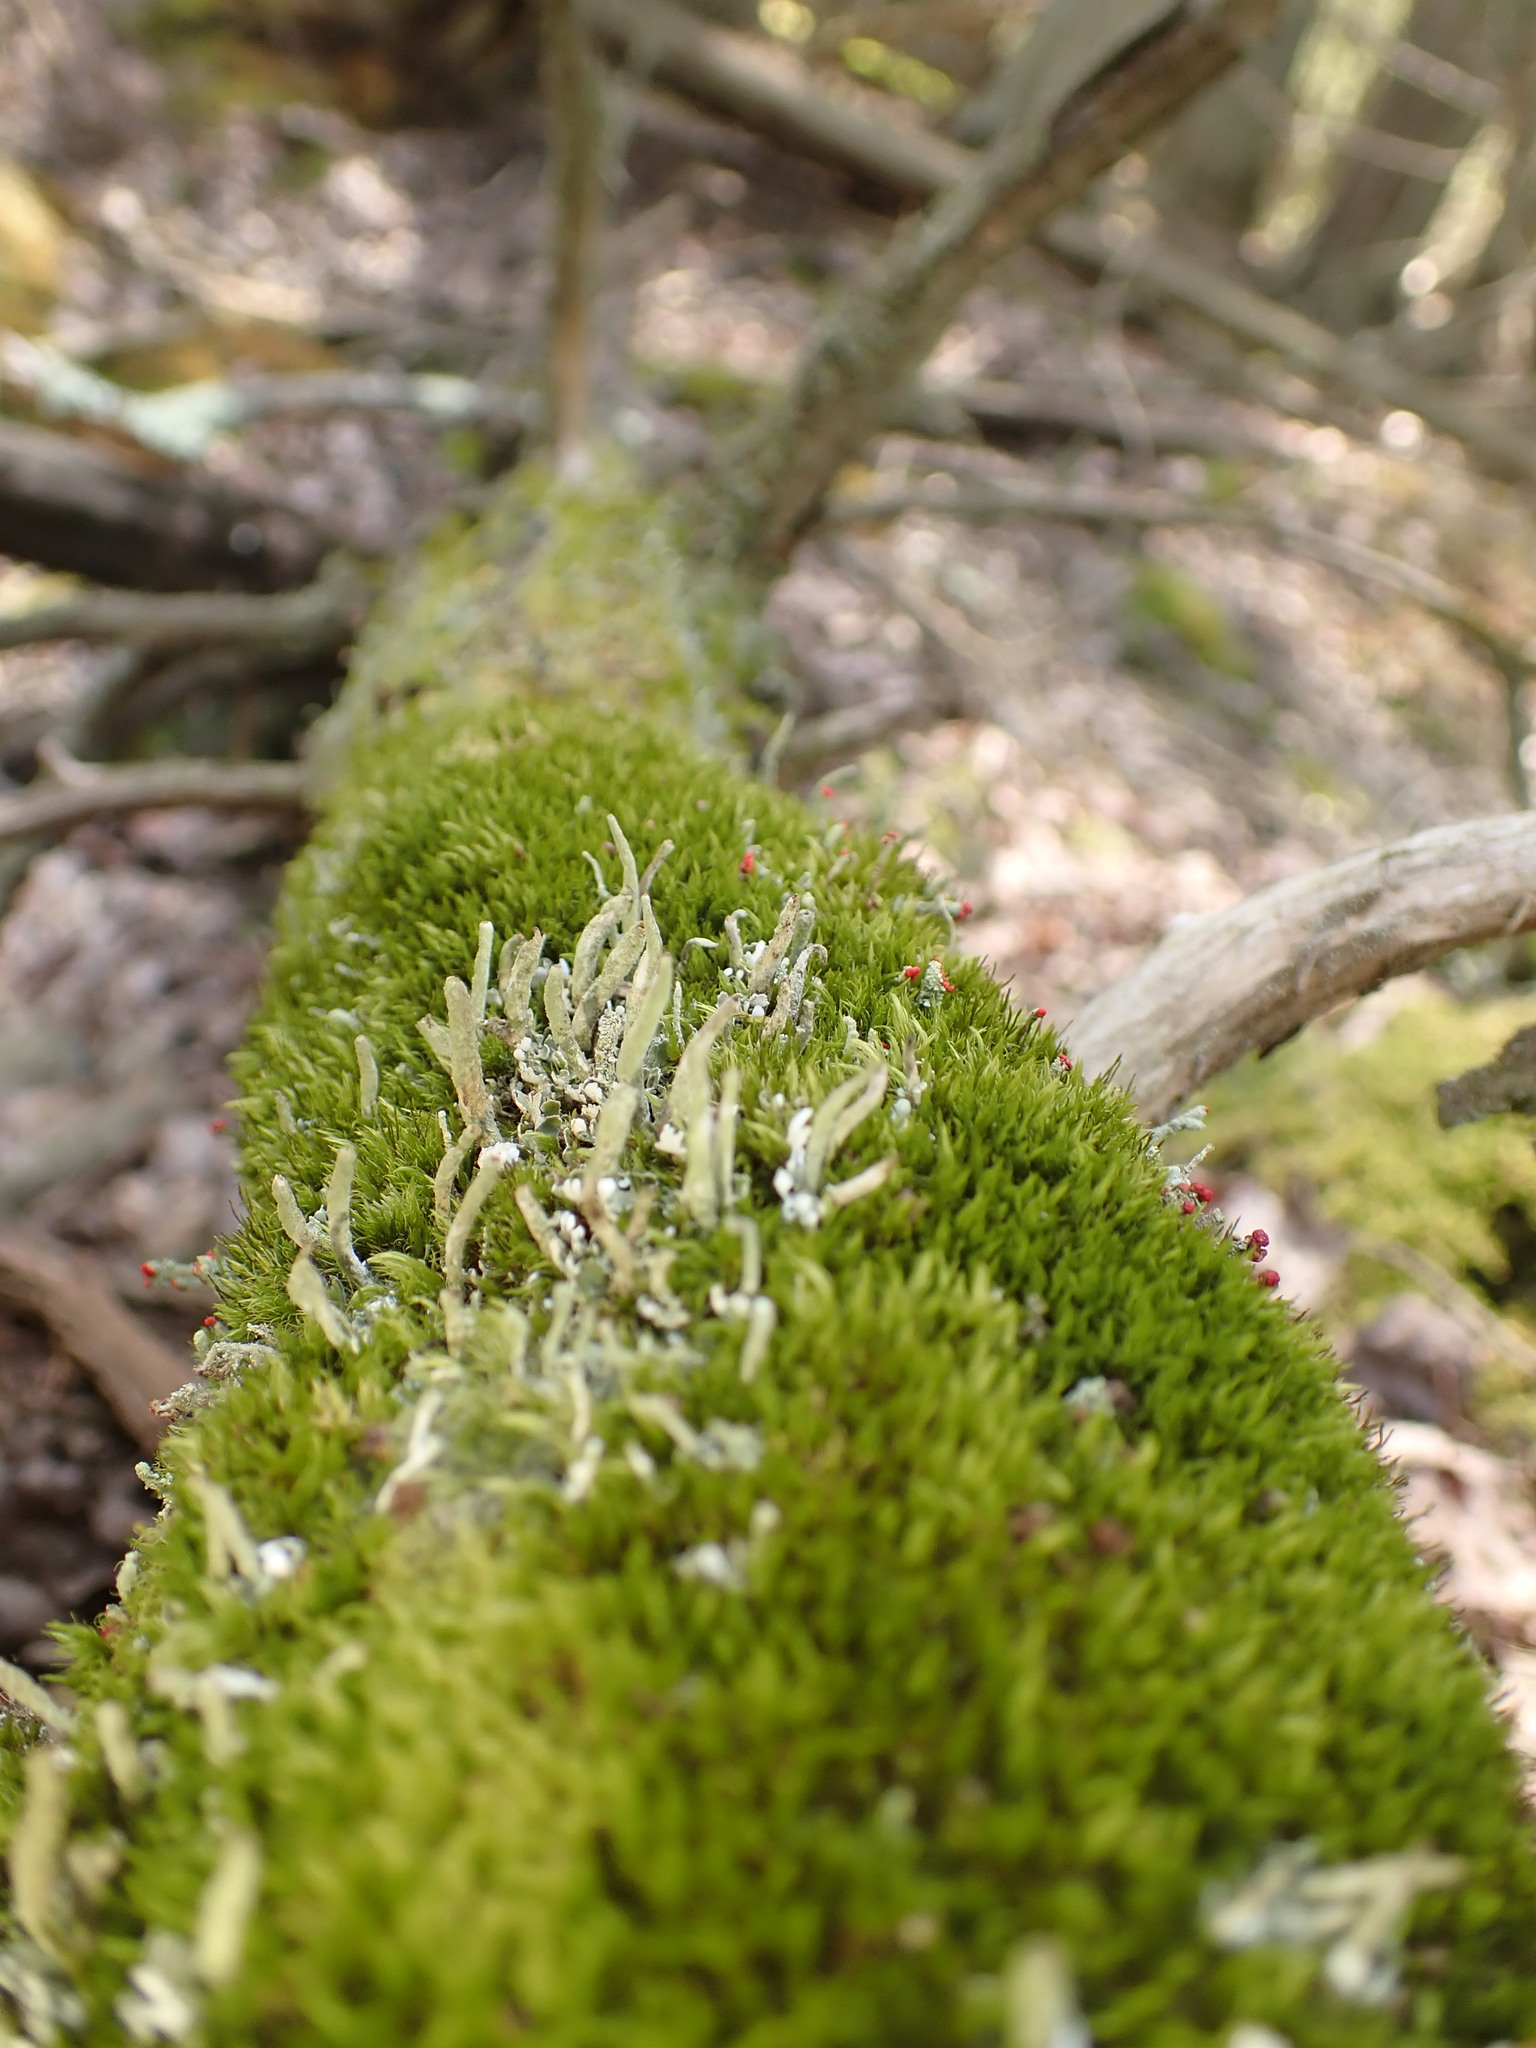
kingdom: Fungi
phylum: Ascomycota
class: Lecanoromycetes
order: Lecanorales
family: Cladoniaceae
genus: Cladonia
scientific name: Cladonia ochrochlora
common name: Smooth-footed powderhorn
